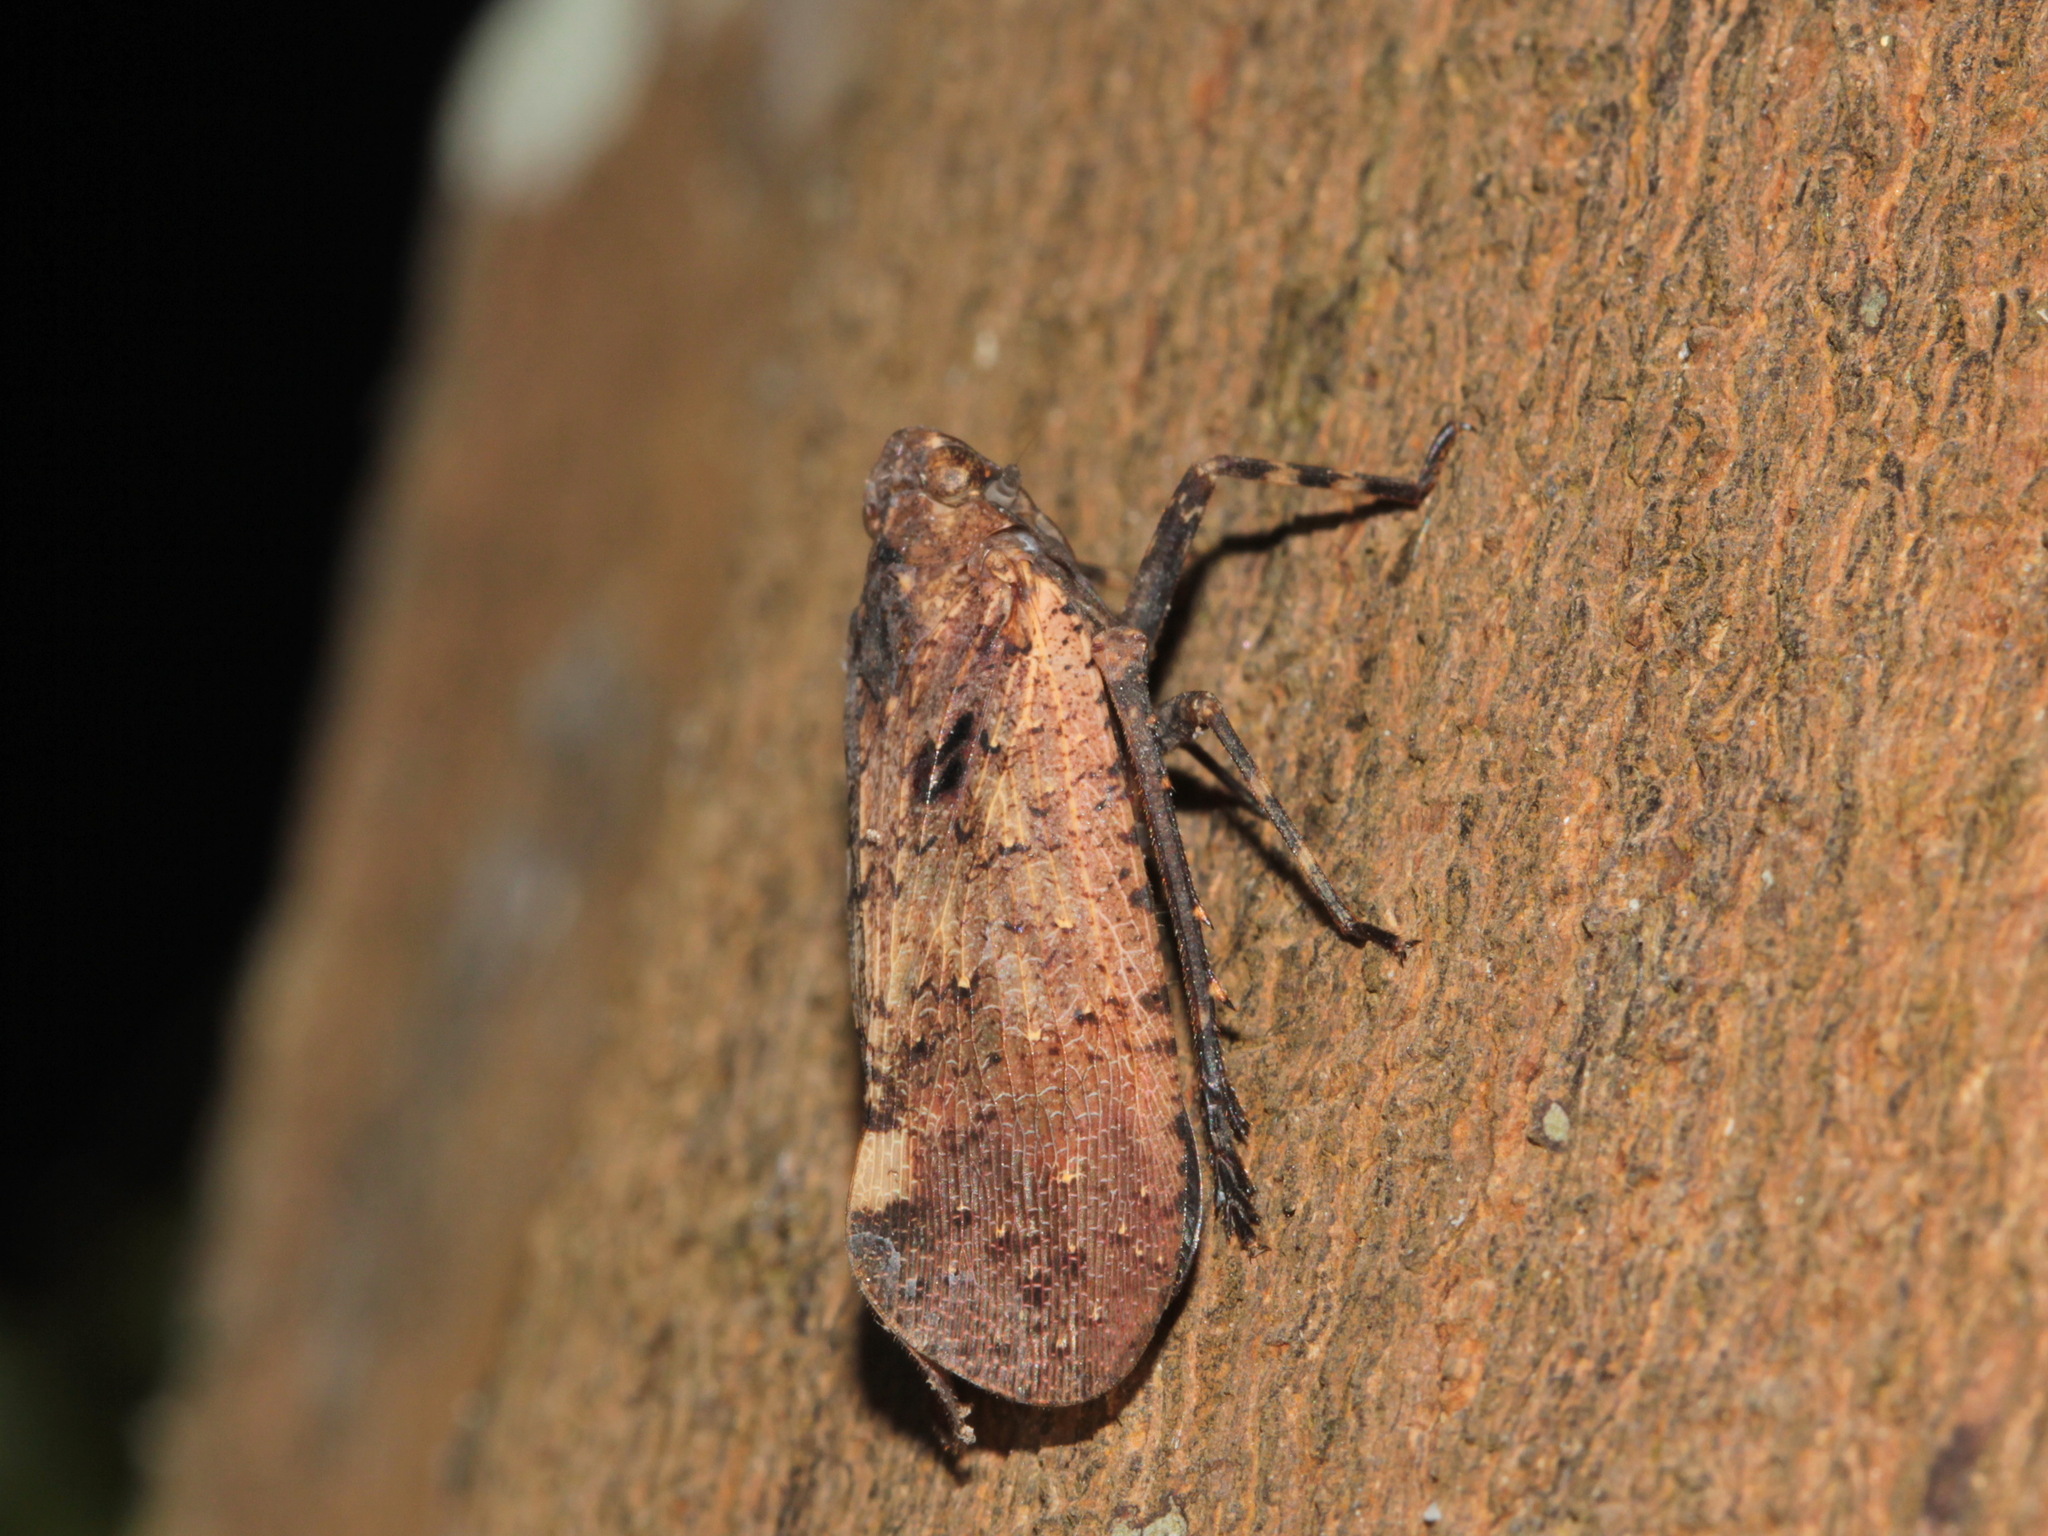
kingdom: Animalia
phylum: Arthropoda
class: Insecta
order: Hemiptera
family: Fulgoridae
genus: Penthicodes
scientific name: Penthicodes pulchella
